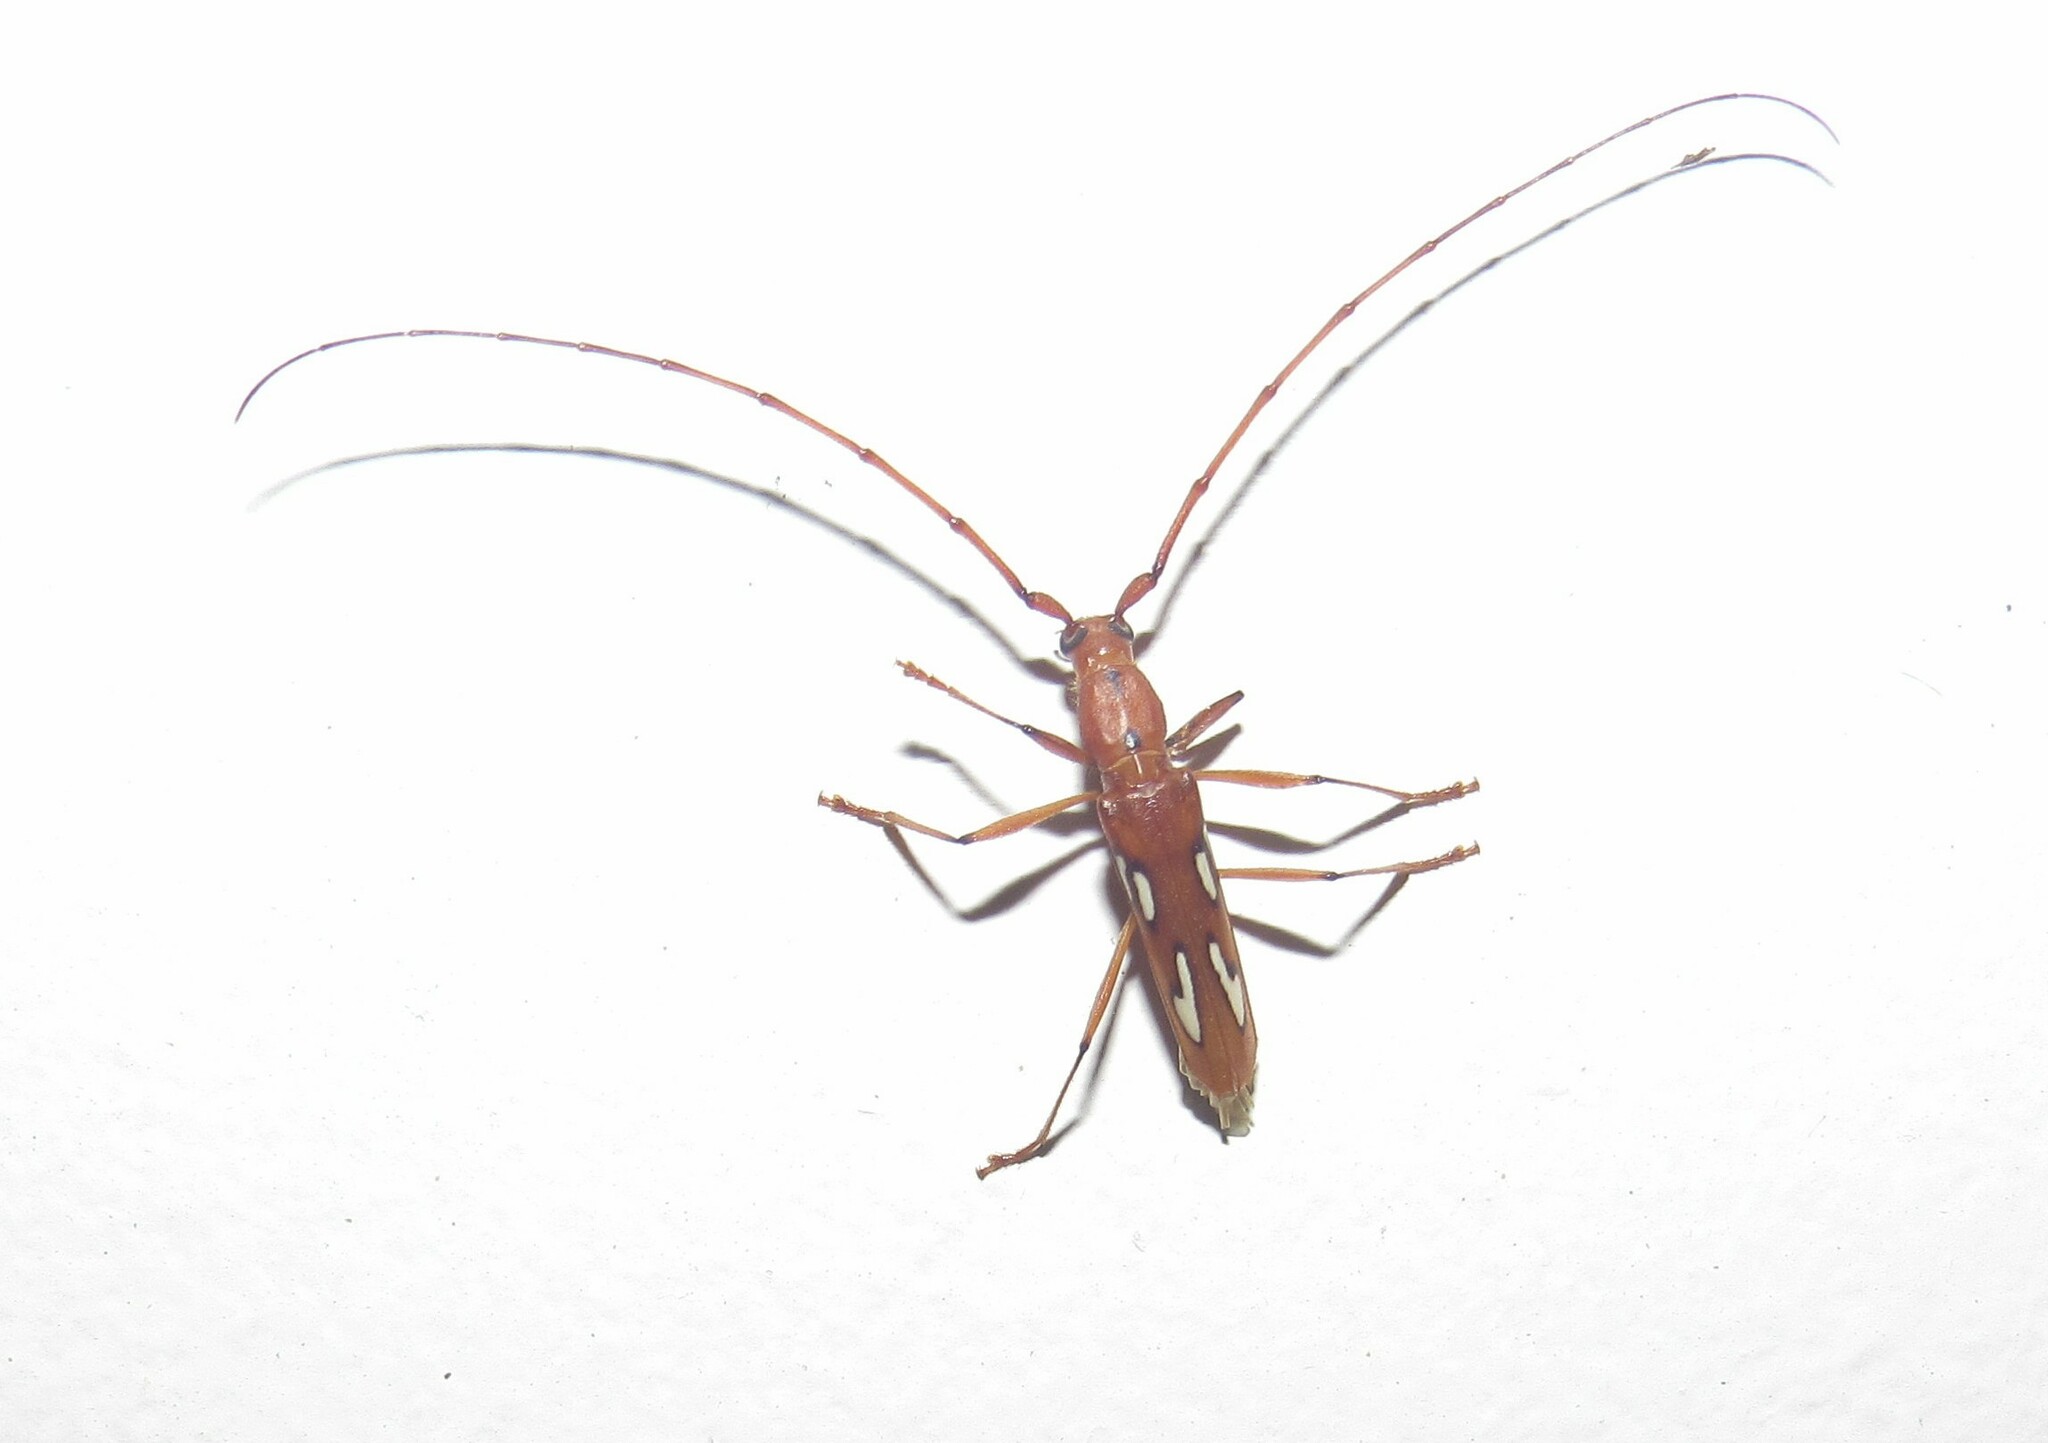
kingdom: Animalia
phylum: Arthropoda
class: Insecta
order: Coleoptera
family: Cerambycidae
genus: Eurymerus
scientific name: Eurymerus eburioides
